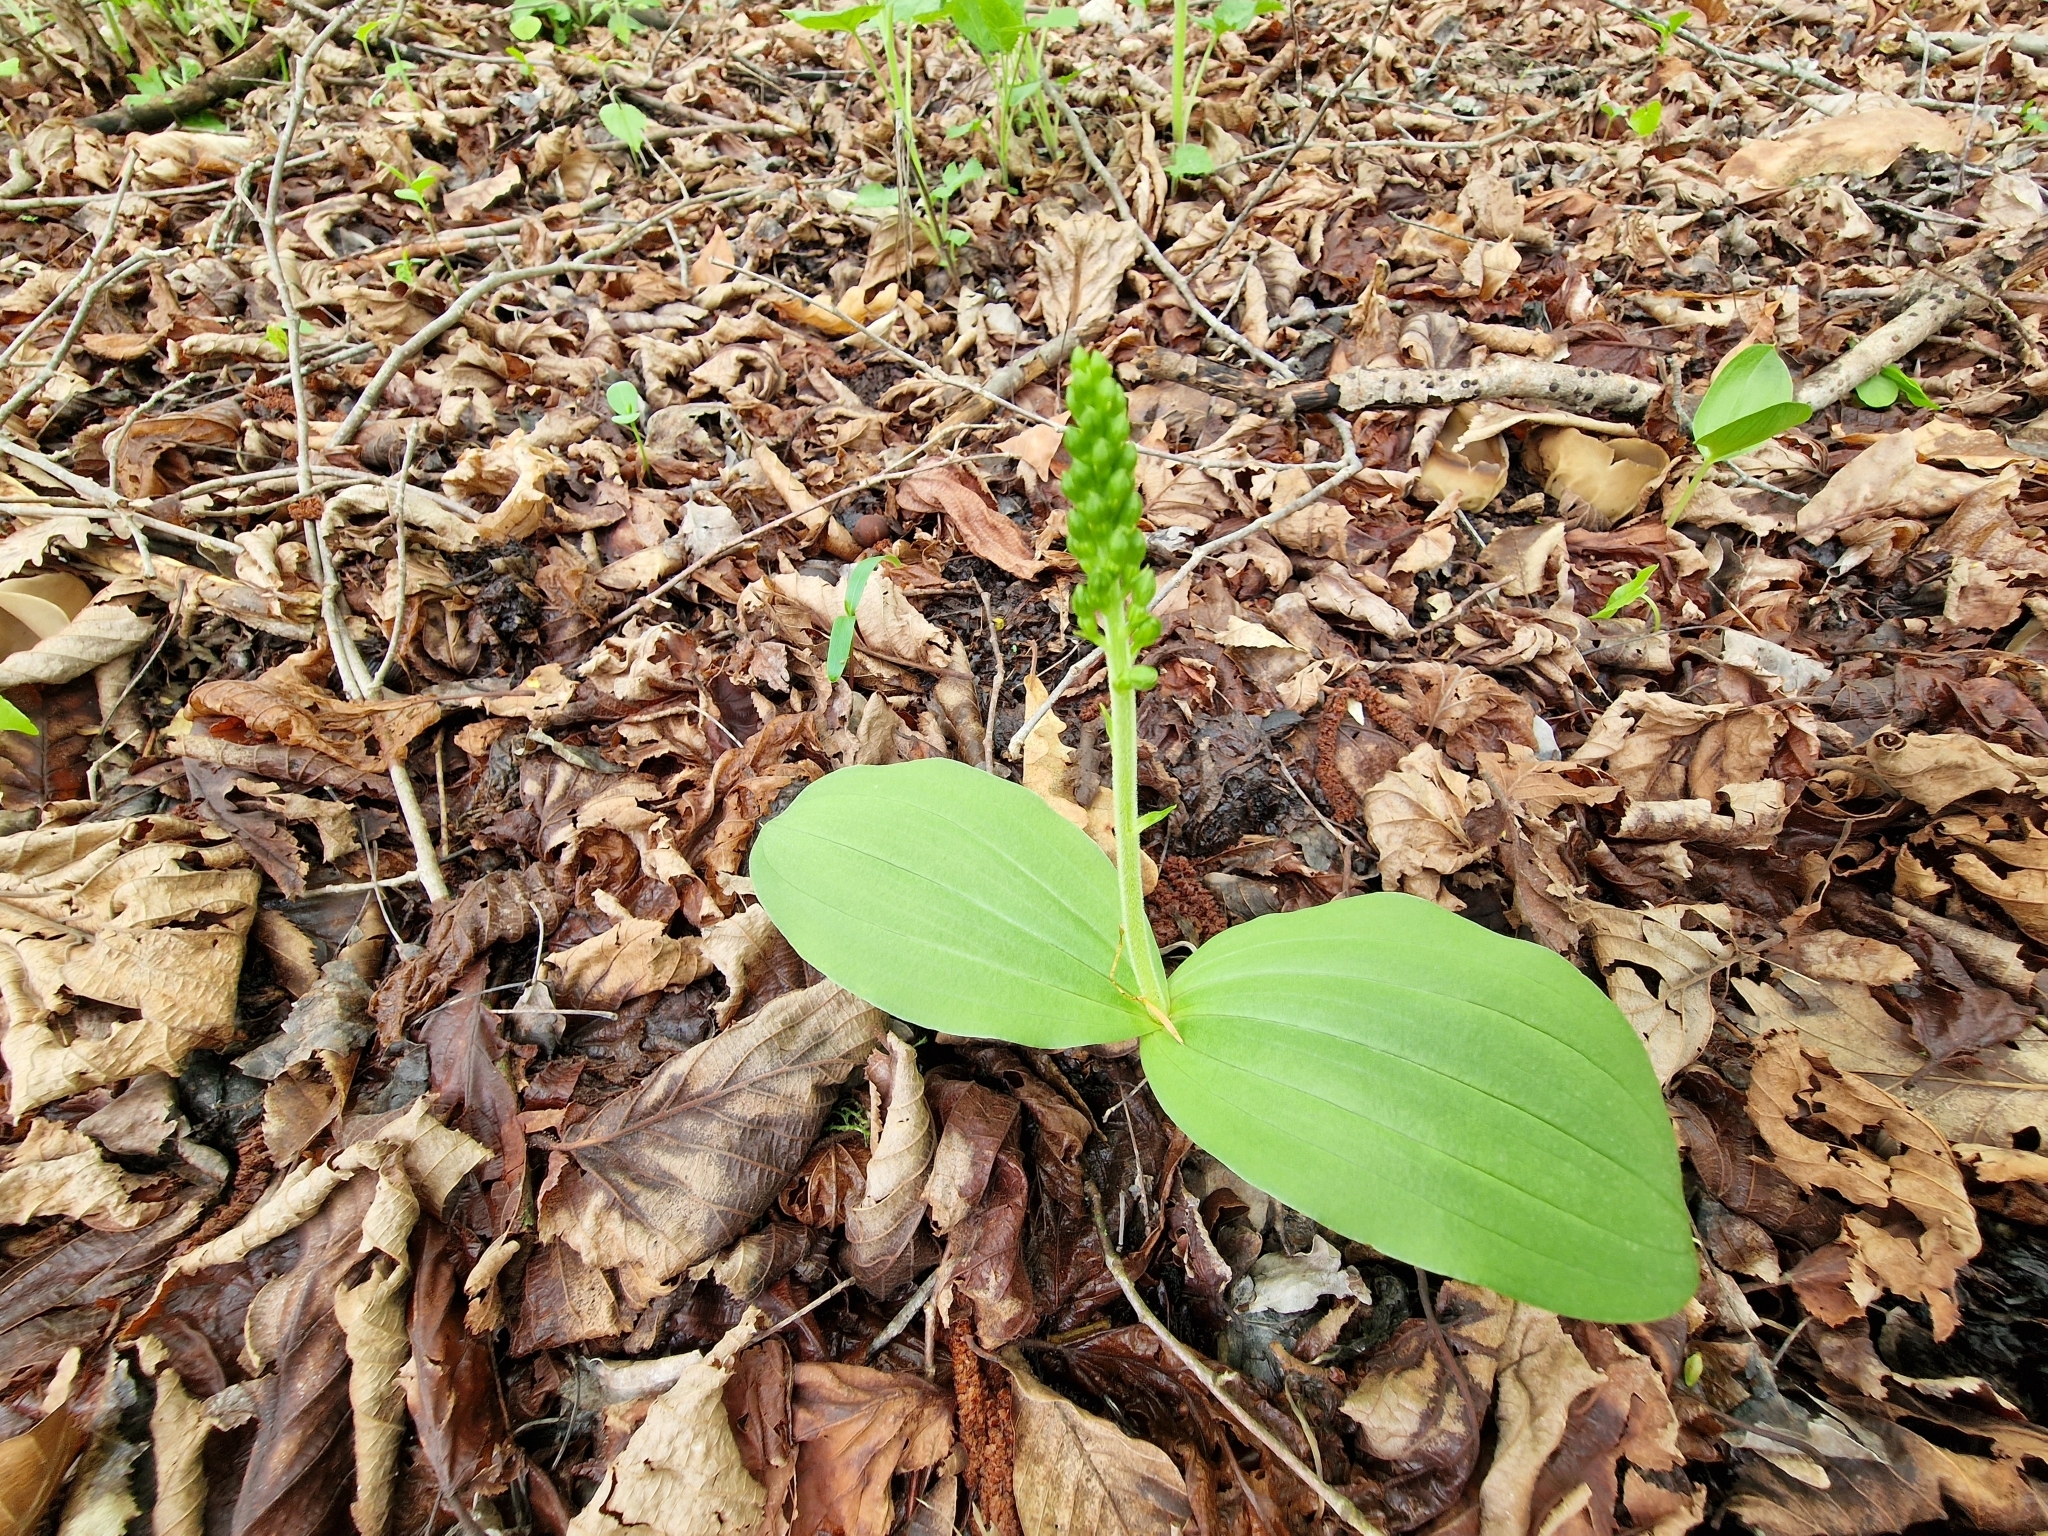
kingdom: Plantae
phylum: Tracheophyta
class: Liliopsida
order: Asparagales
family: Orchidaceae
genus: Neottia
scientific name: Neottia ovata
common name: Common twayblade
